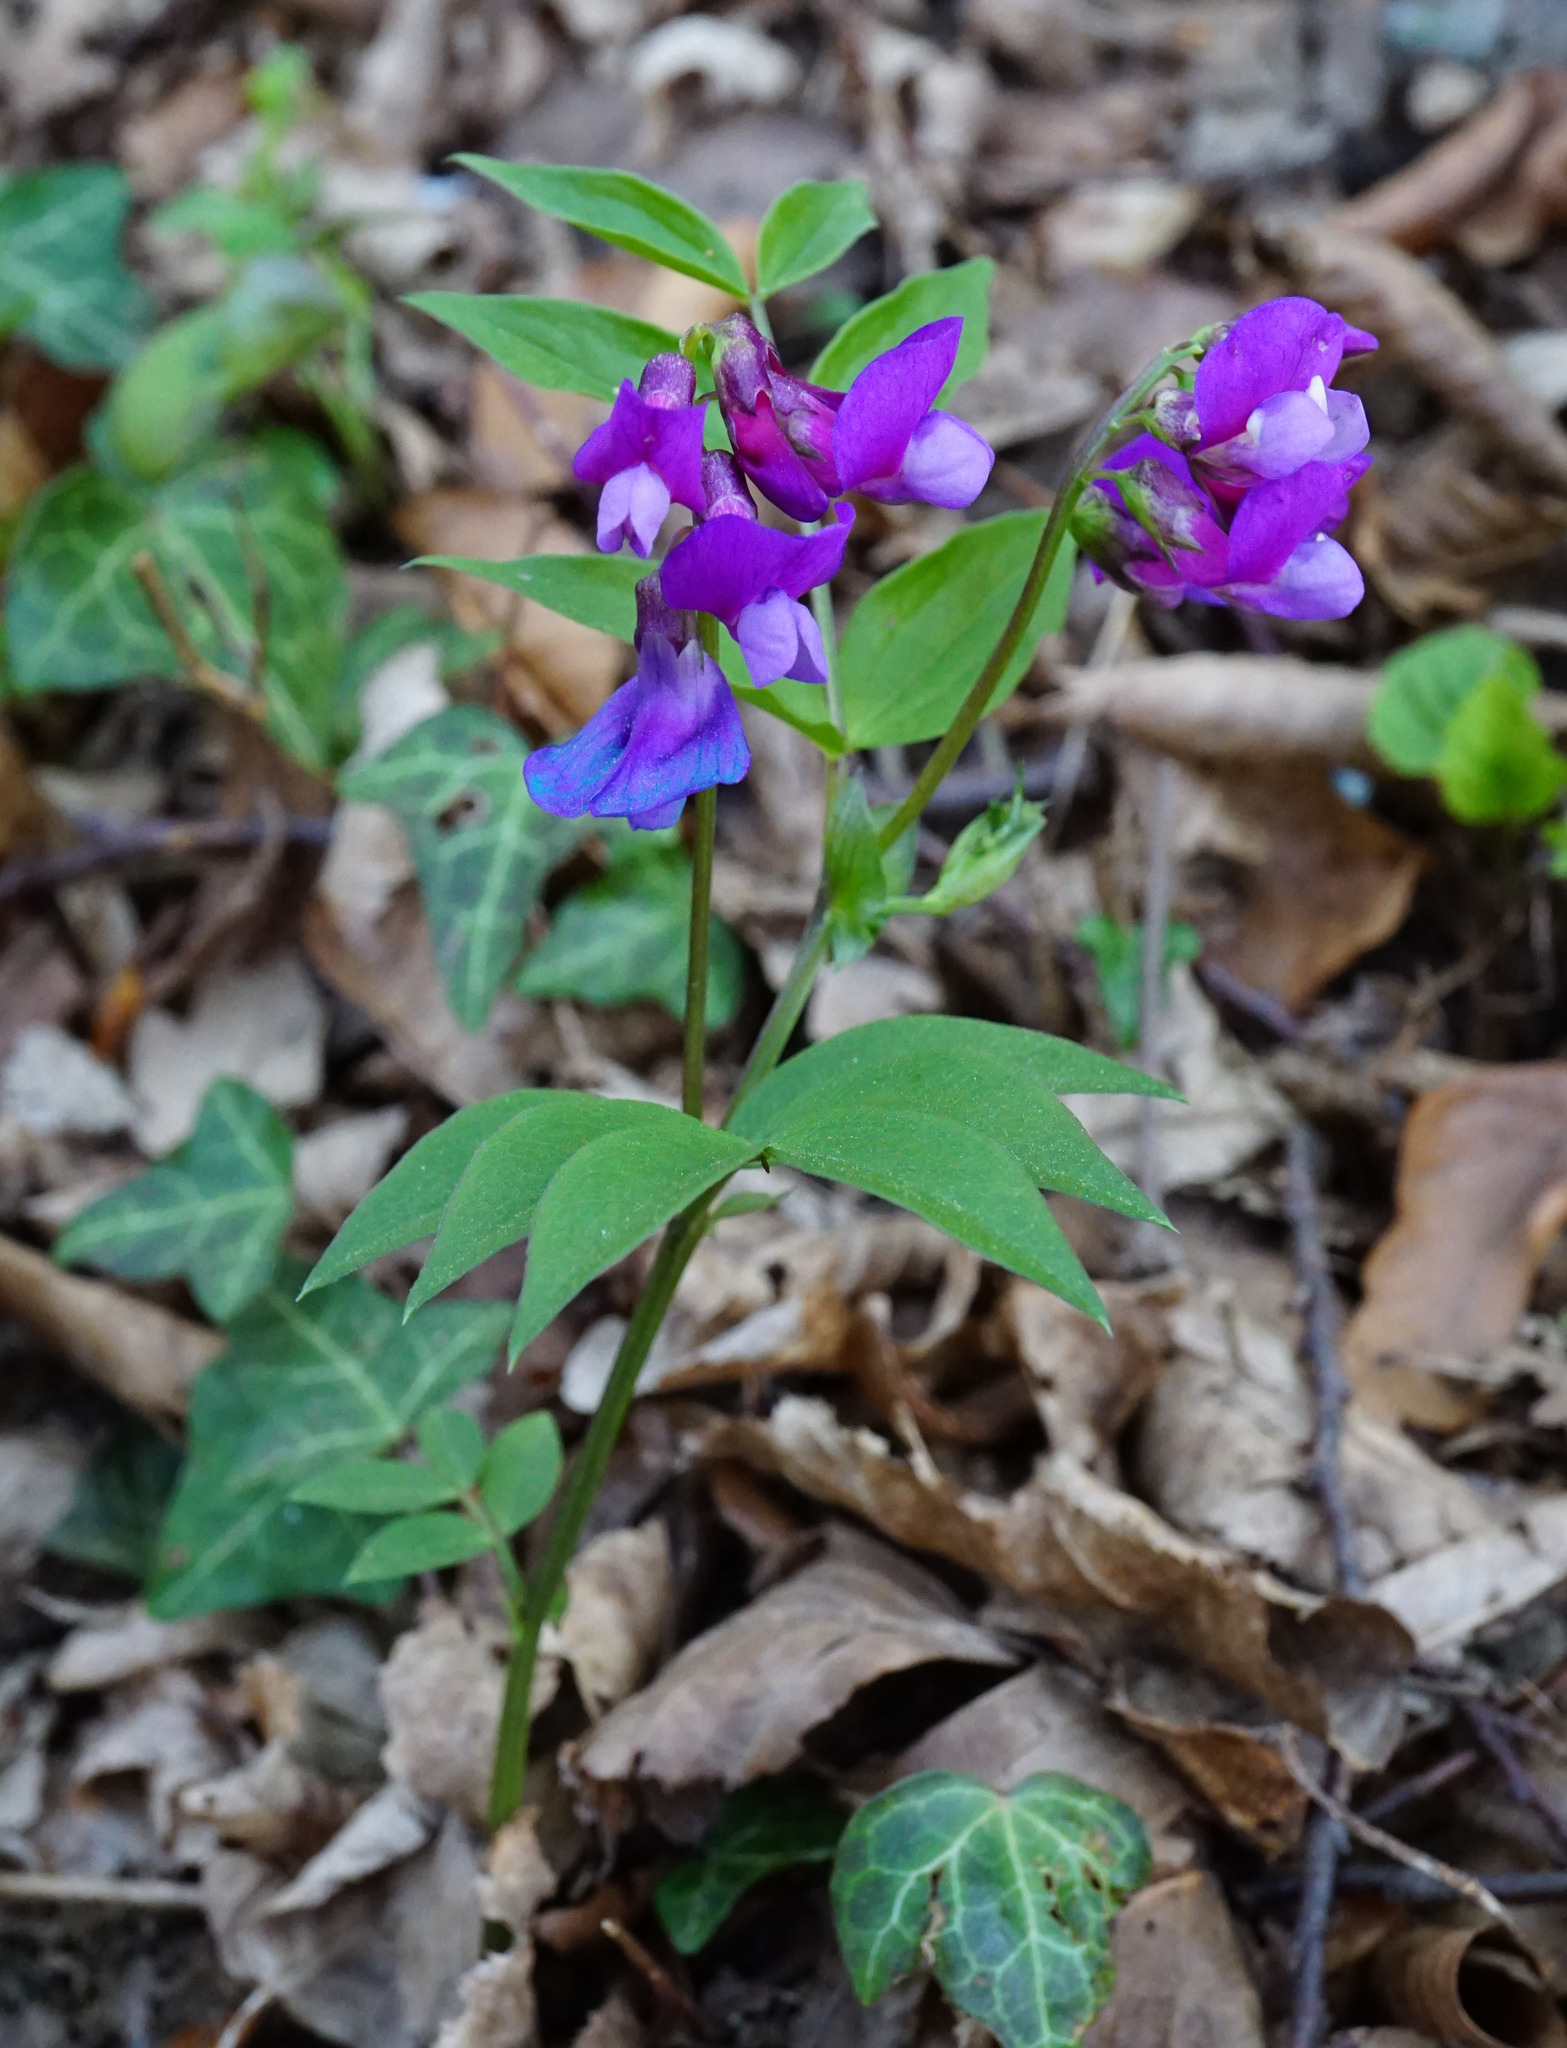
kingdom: Plantae
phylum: Tracheophyta
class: Magnoliopsida
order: Fabales
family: Fabaceae
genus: Lathyrus
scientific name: Lathyrus vernus
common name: Spring pea
